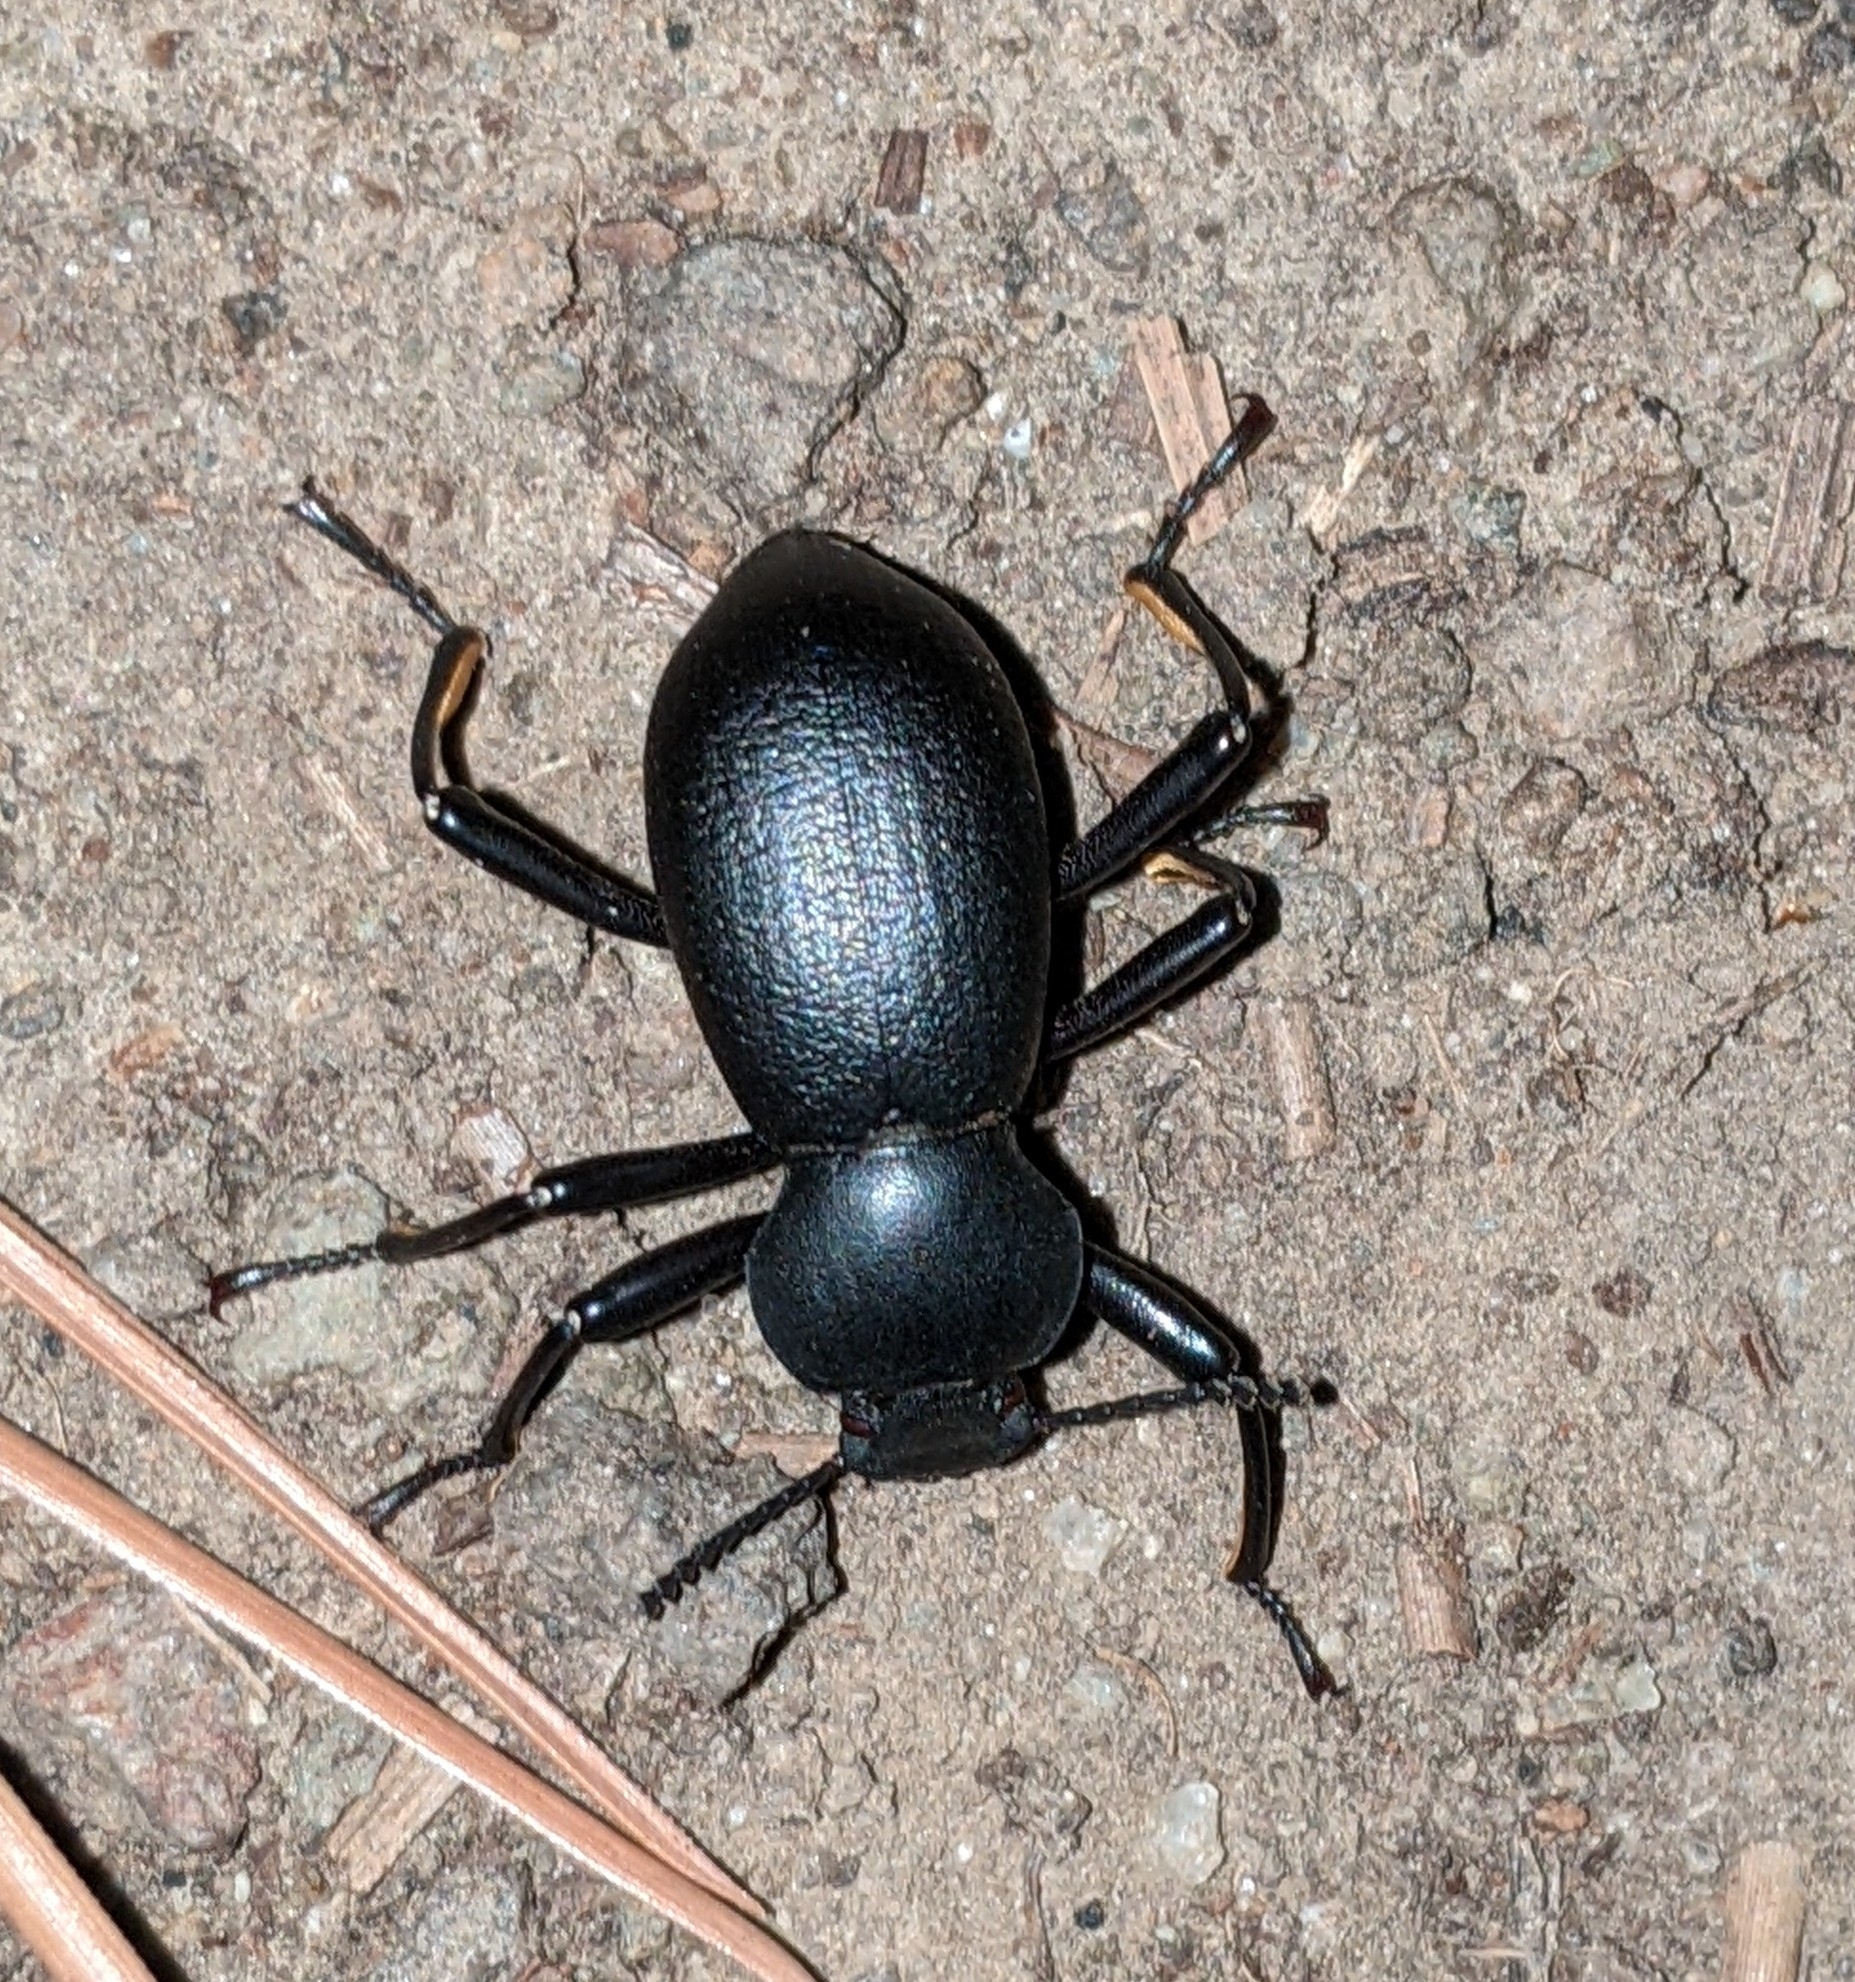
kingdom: Animalia
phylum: Arthropoda
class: Insecta
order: Coleoptera
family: Tenebrionidae
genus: Coelocnemis
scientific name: Coelocnemis dilaticollis
